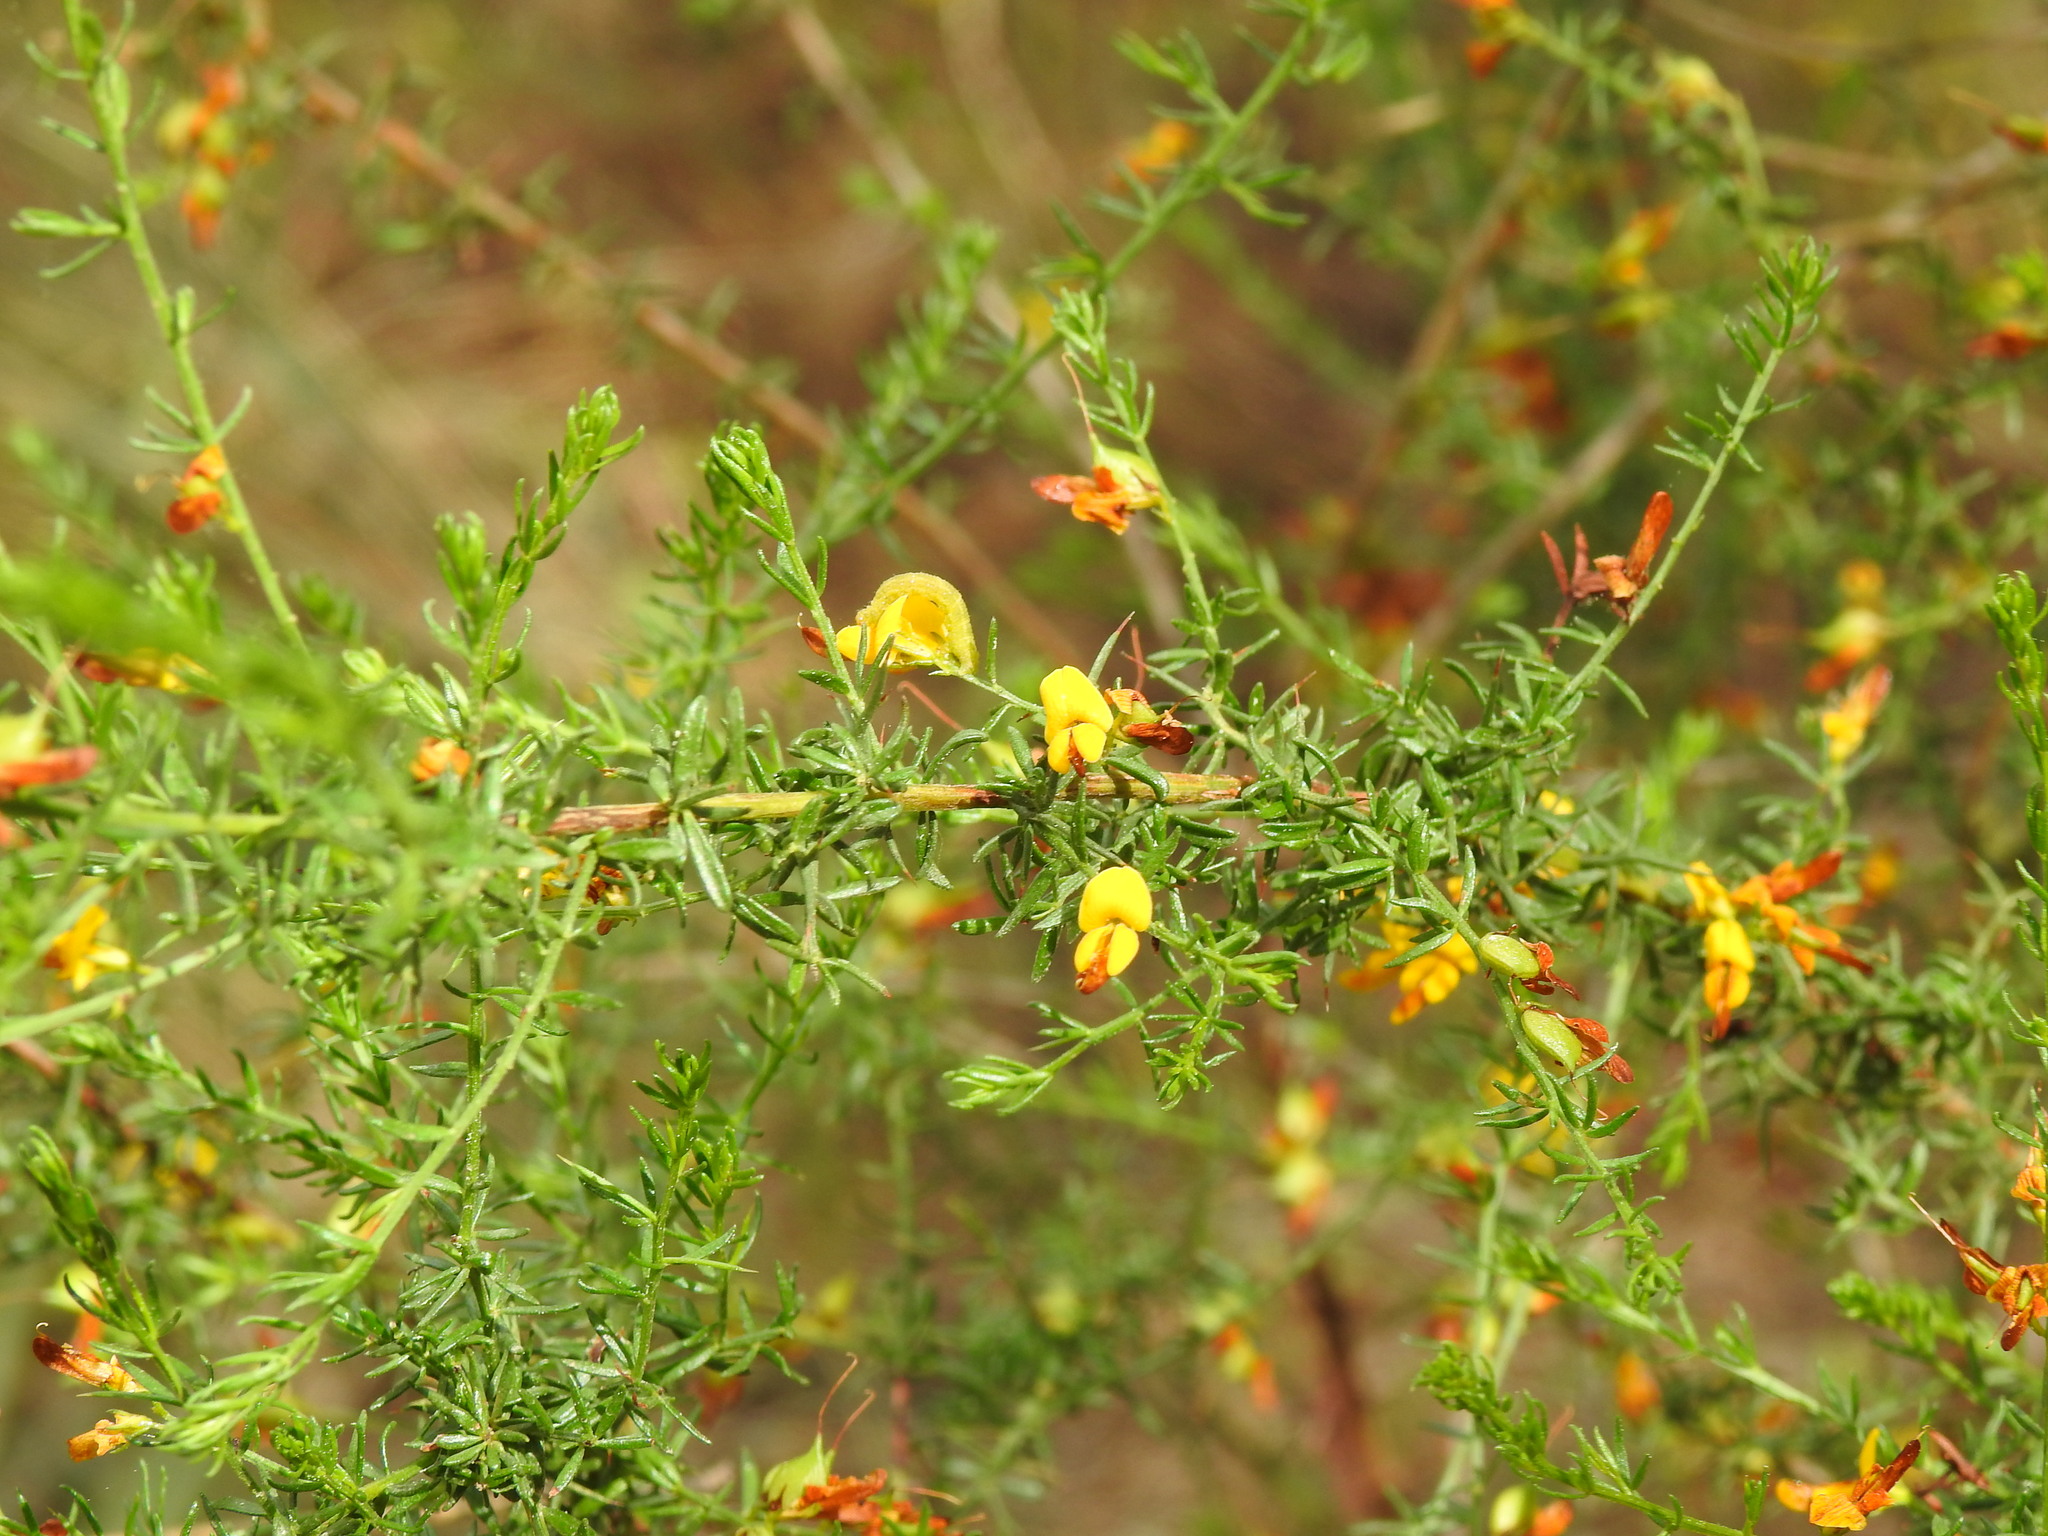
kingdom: Plantae
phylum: Tracheophyta
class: Magnoliopsida
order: Fabales
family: Fabaceae
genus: Genista
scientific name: Genista triacanthos
